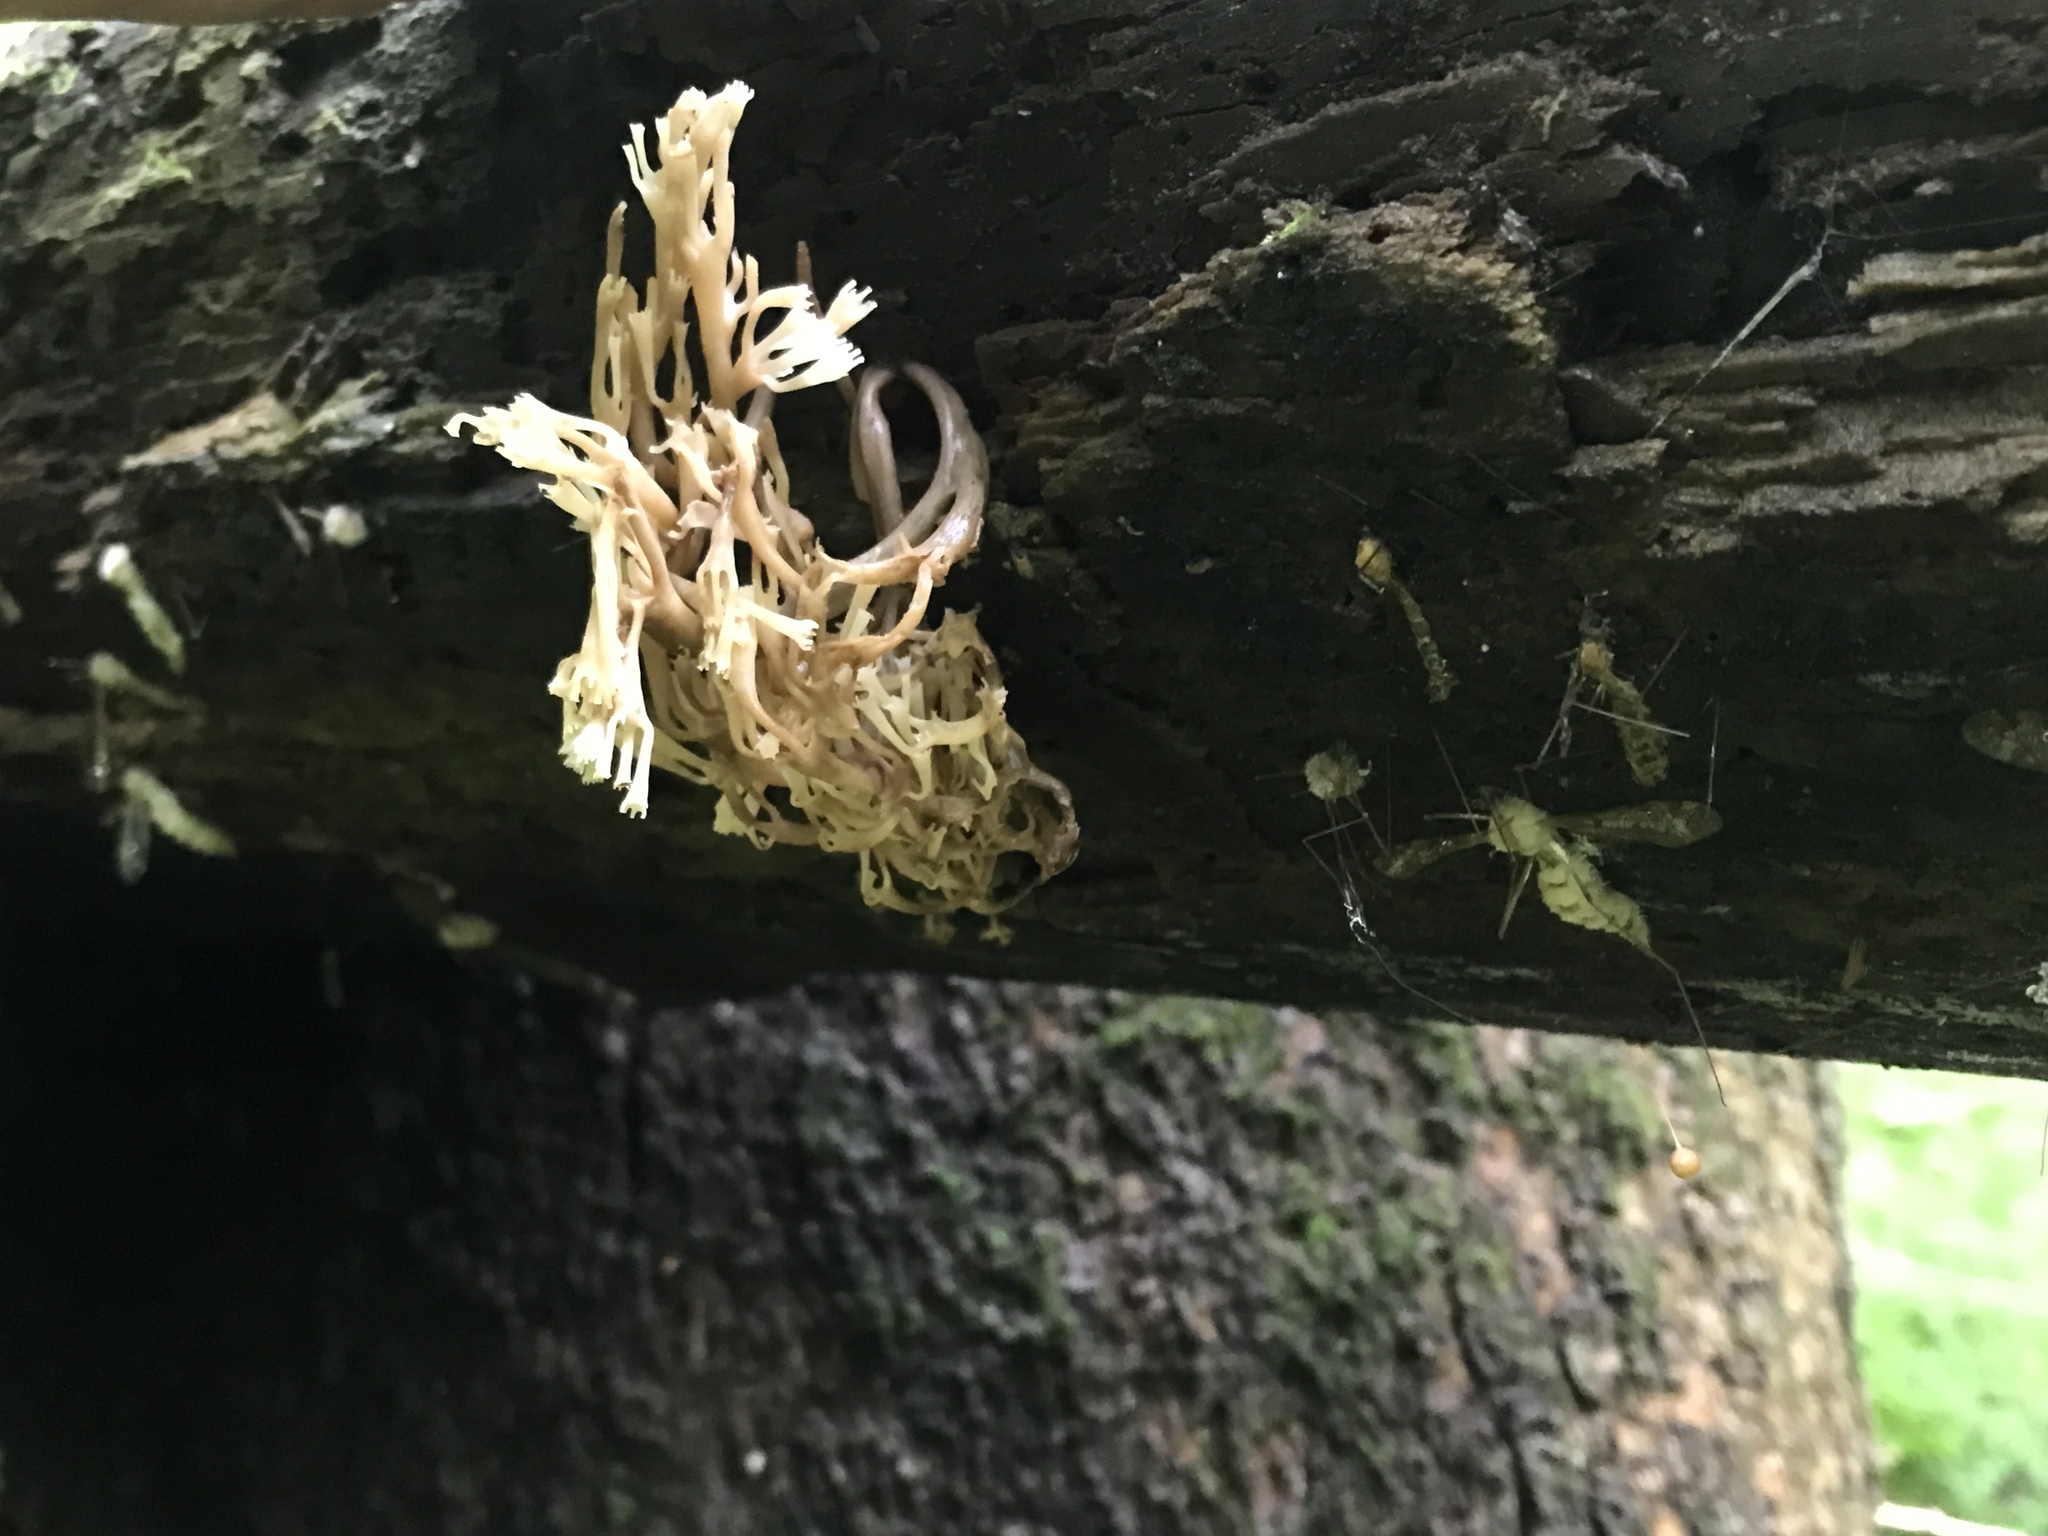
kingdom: Fungi
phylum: Basidiomycota
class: Agaricomycetes
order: Russulales
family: Auriscalpiaceae
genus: Artomyces
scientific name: Artomyces pyxidatus
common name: Crown-tipped coral fungus
